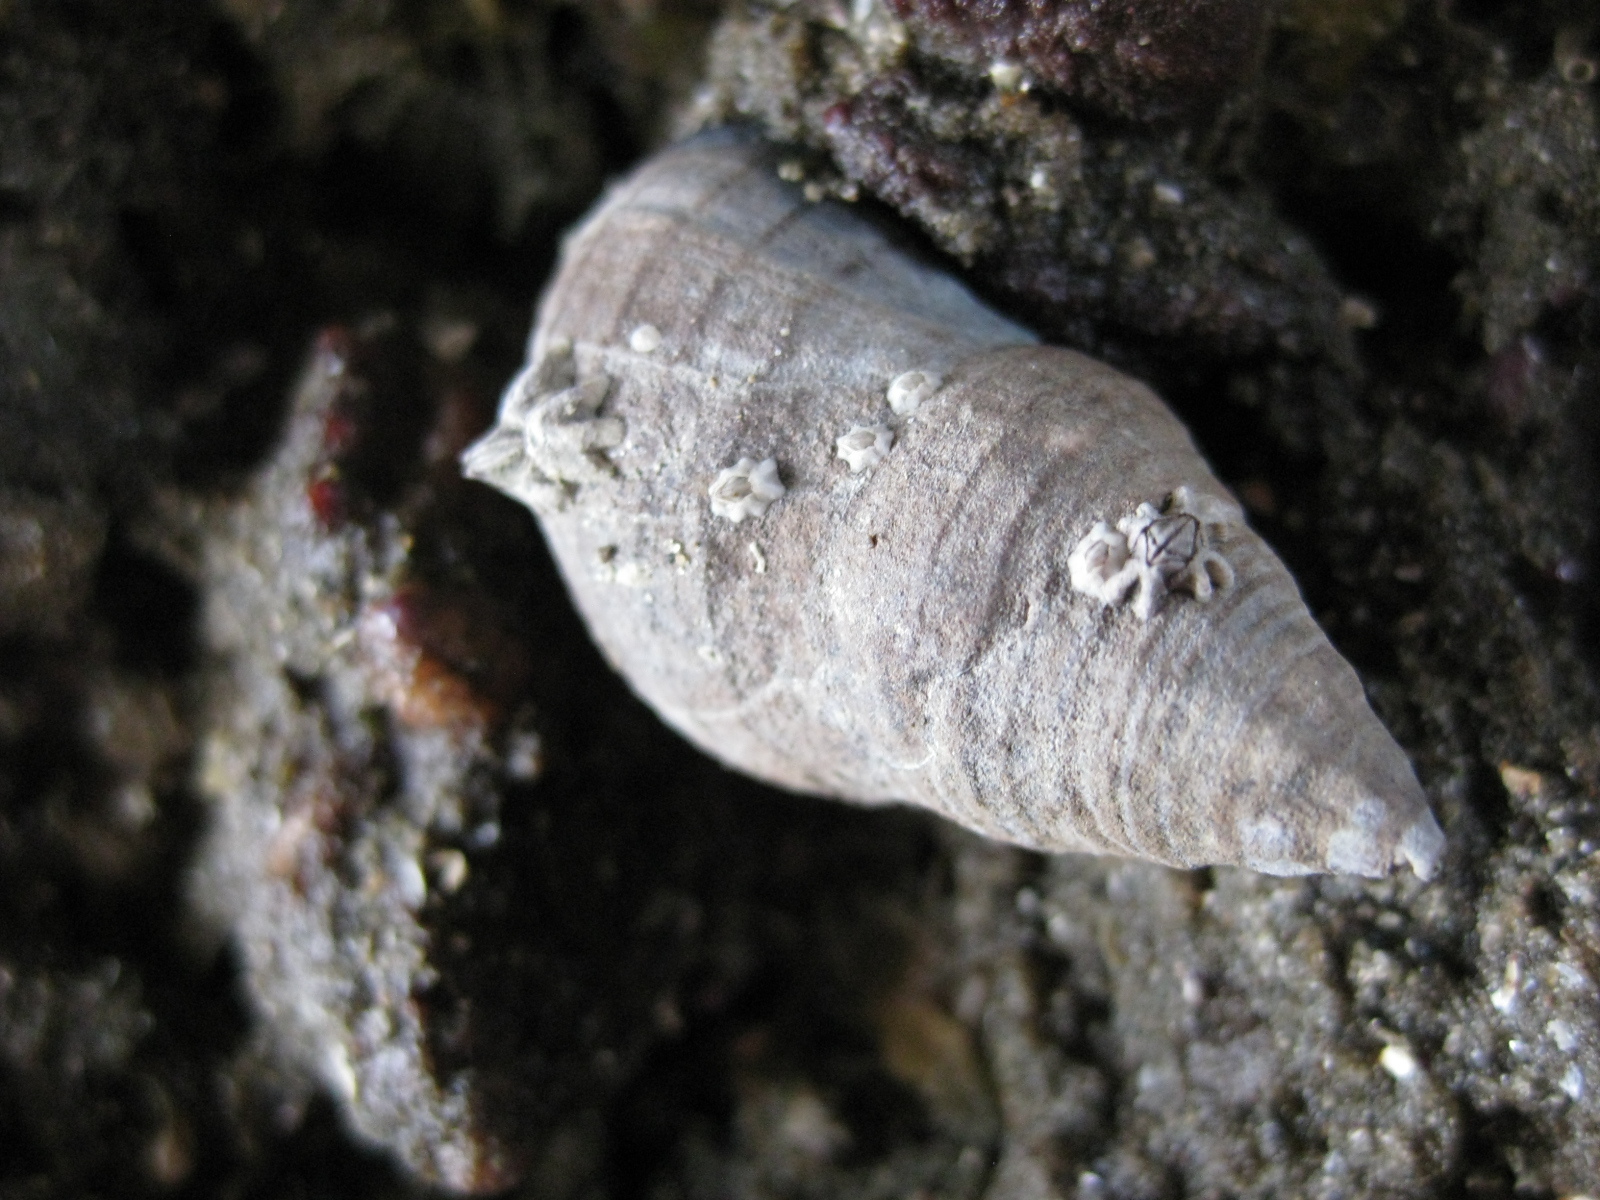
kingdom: Animalia
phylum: Mollusca
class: Gastropoda
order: Neogastropoda
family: Cominellidae
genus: Cominella
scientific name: Cominella virgata
